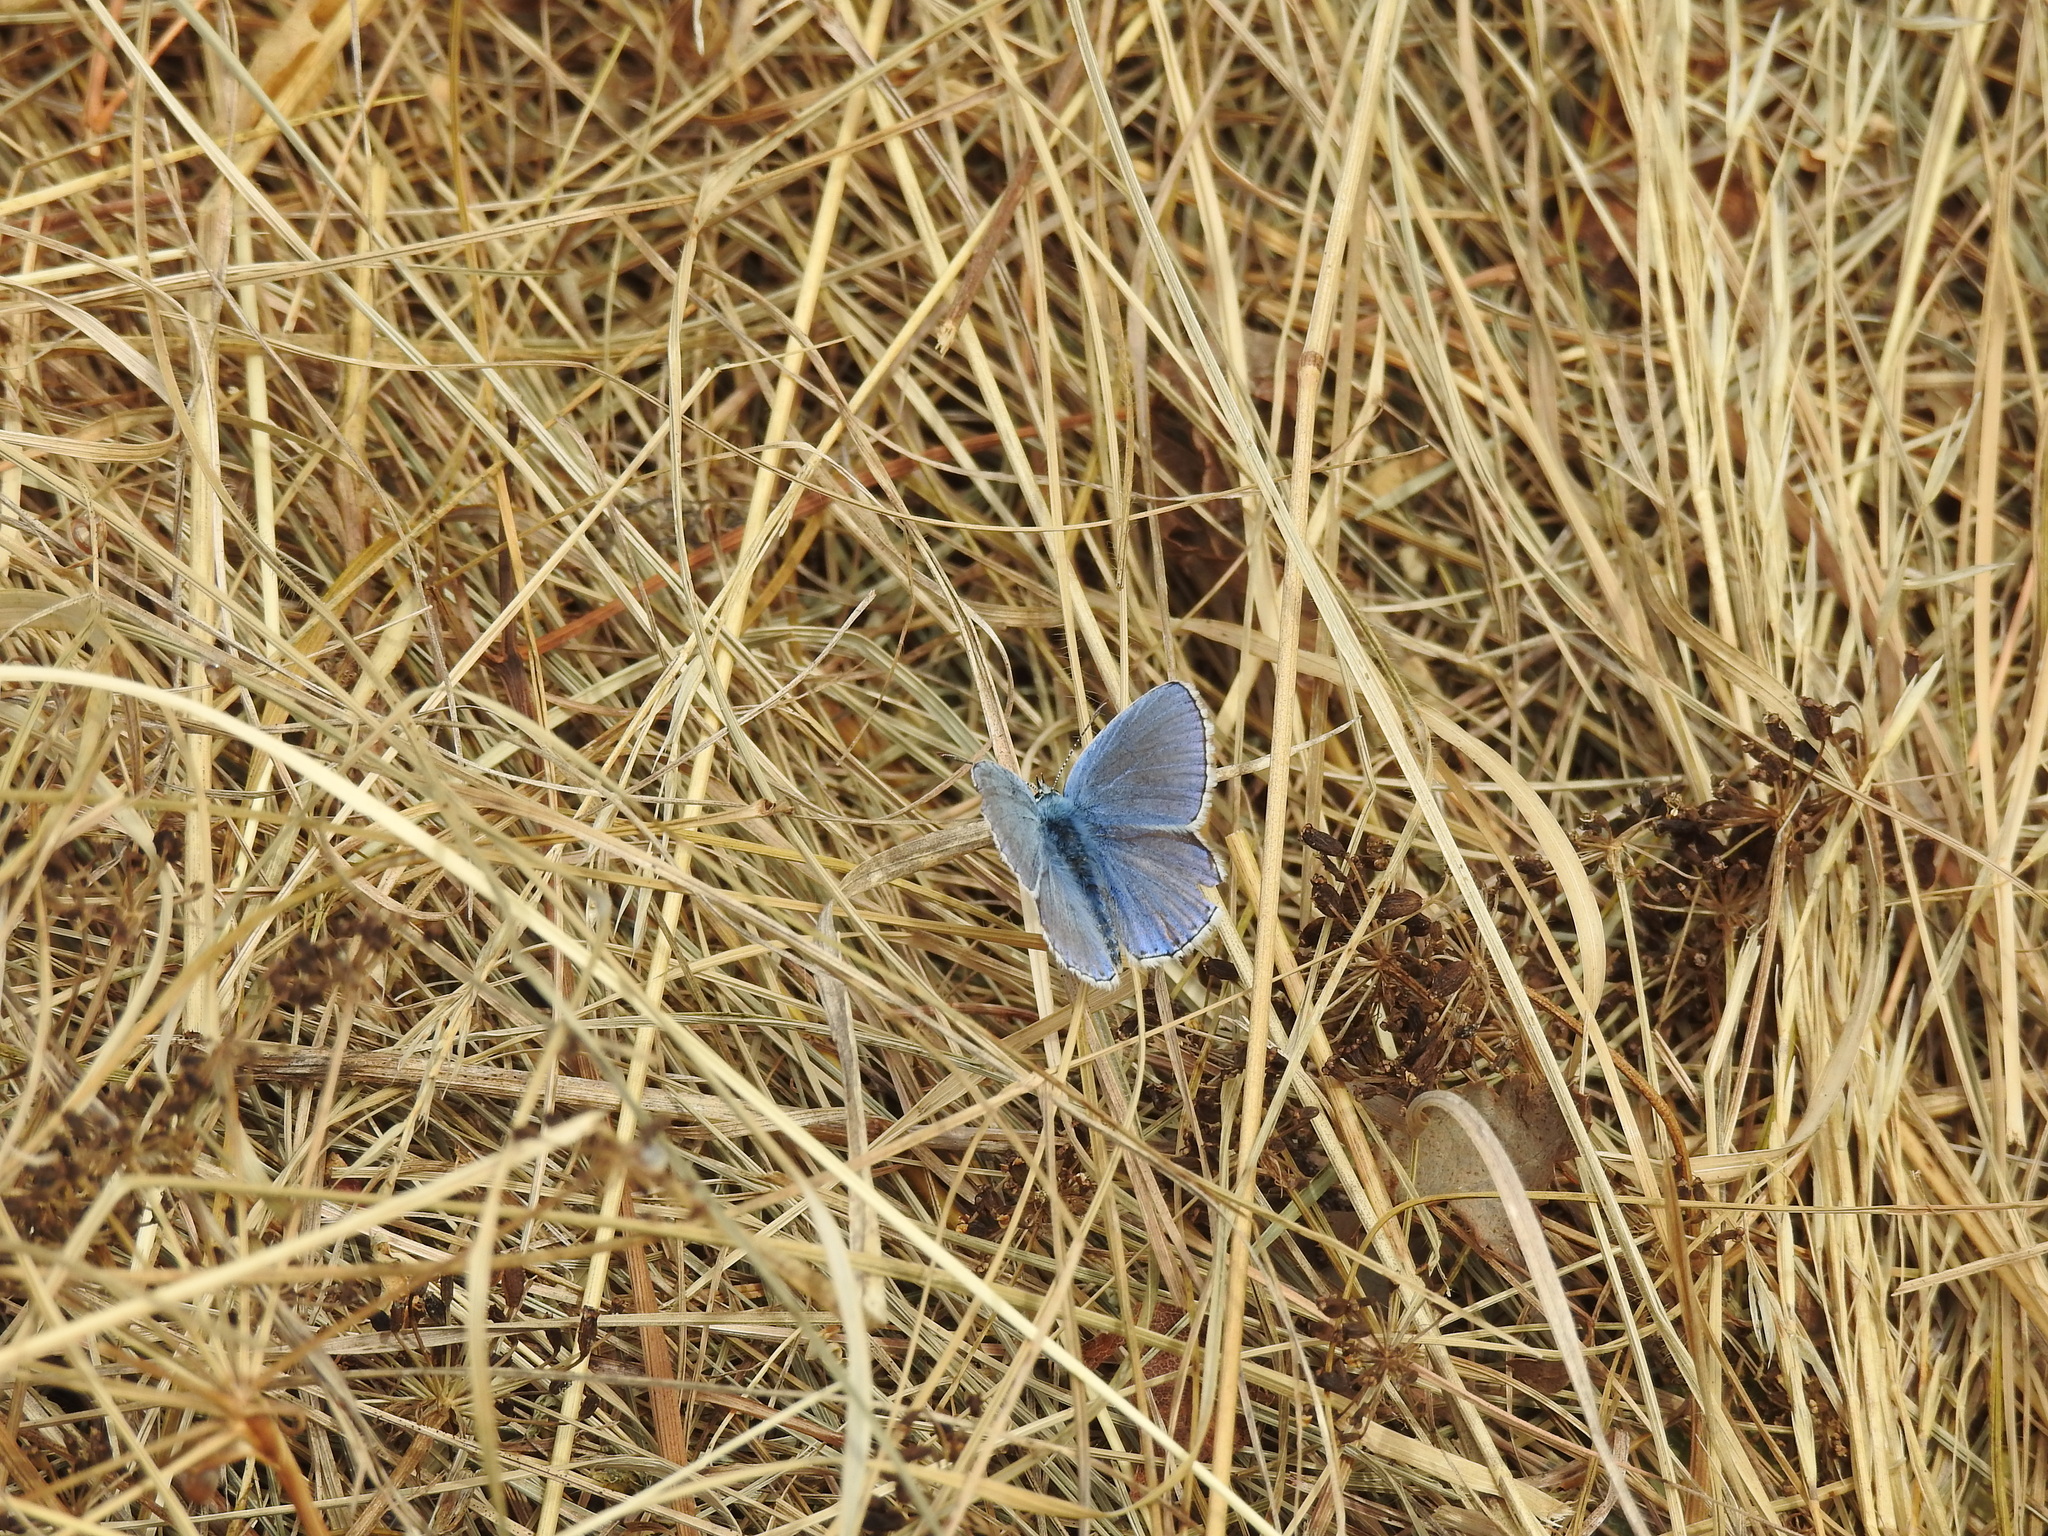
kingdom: Animalia
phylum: Arthropoda
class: Insecta
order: Lepidoptera
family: Lycaenidae
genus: Lysandra
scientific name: Lysandra bellargus
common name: Adonis blue
